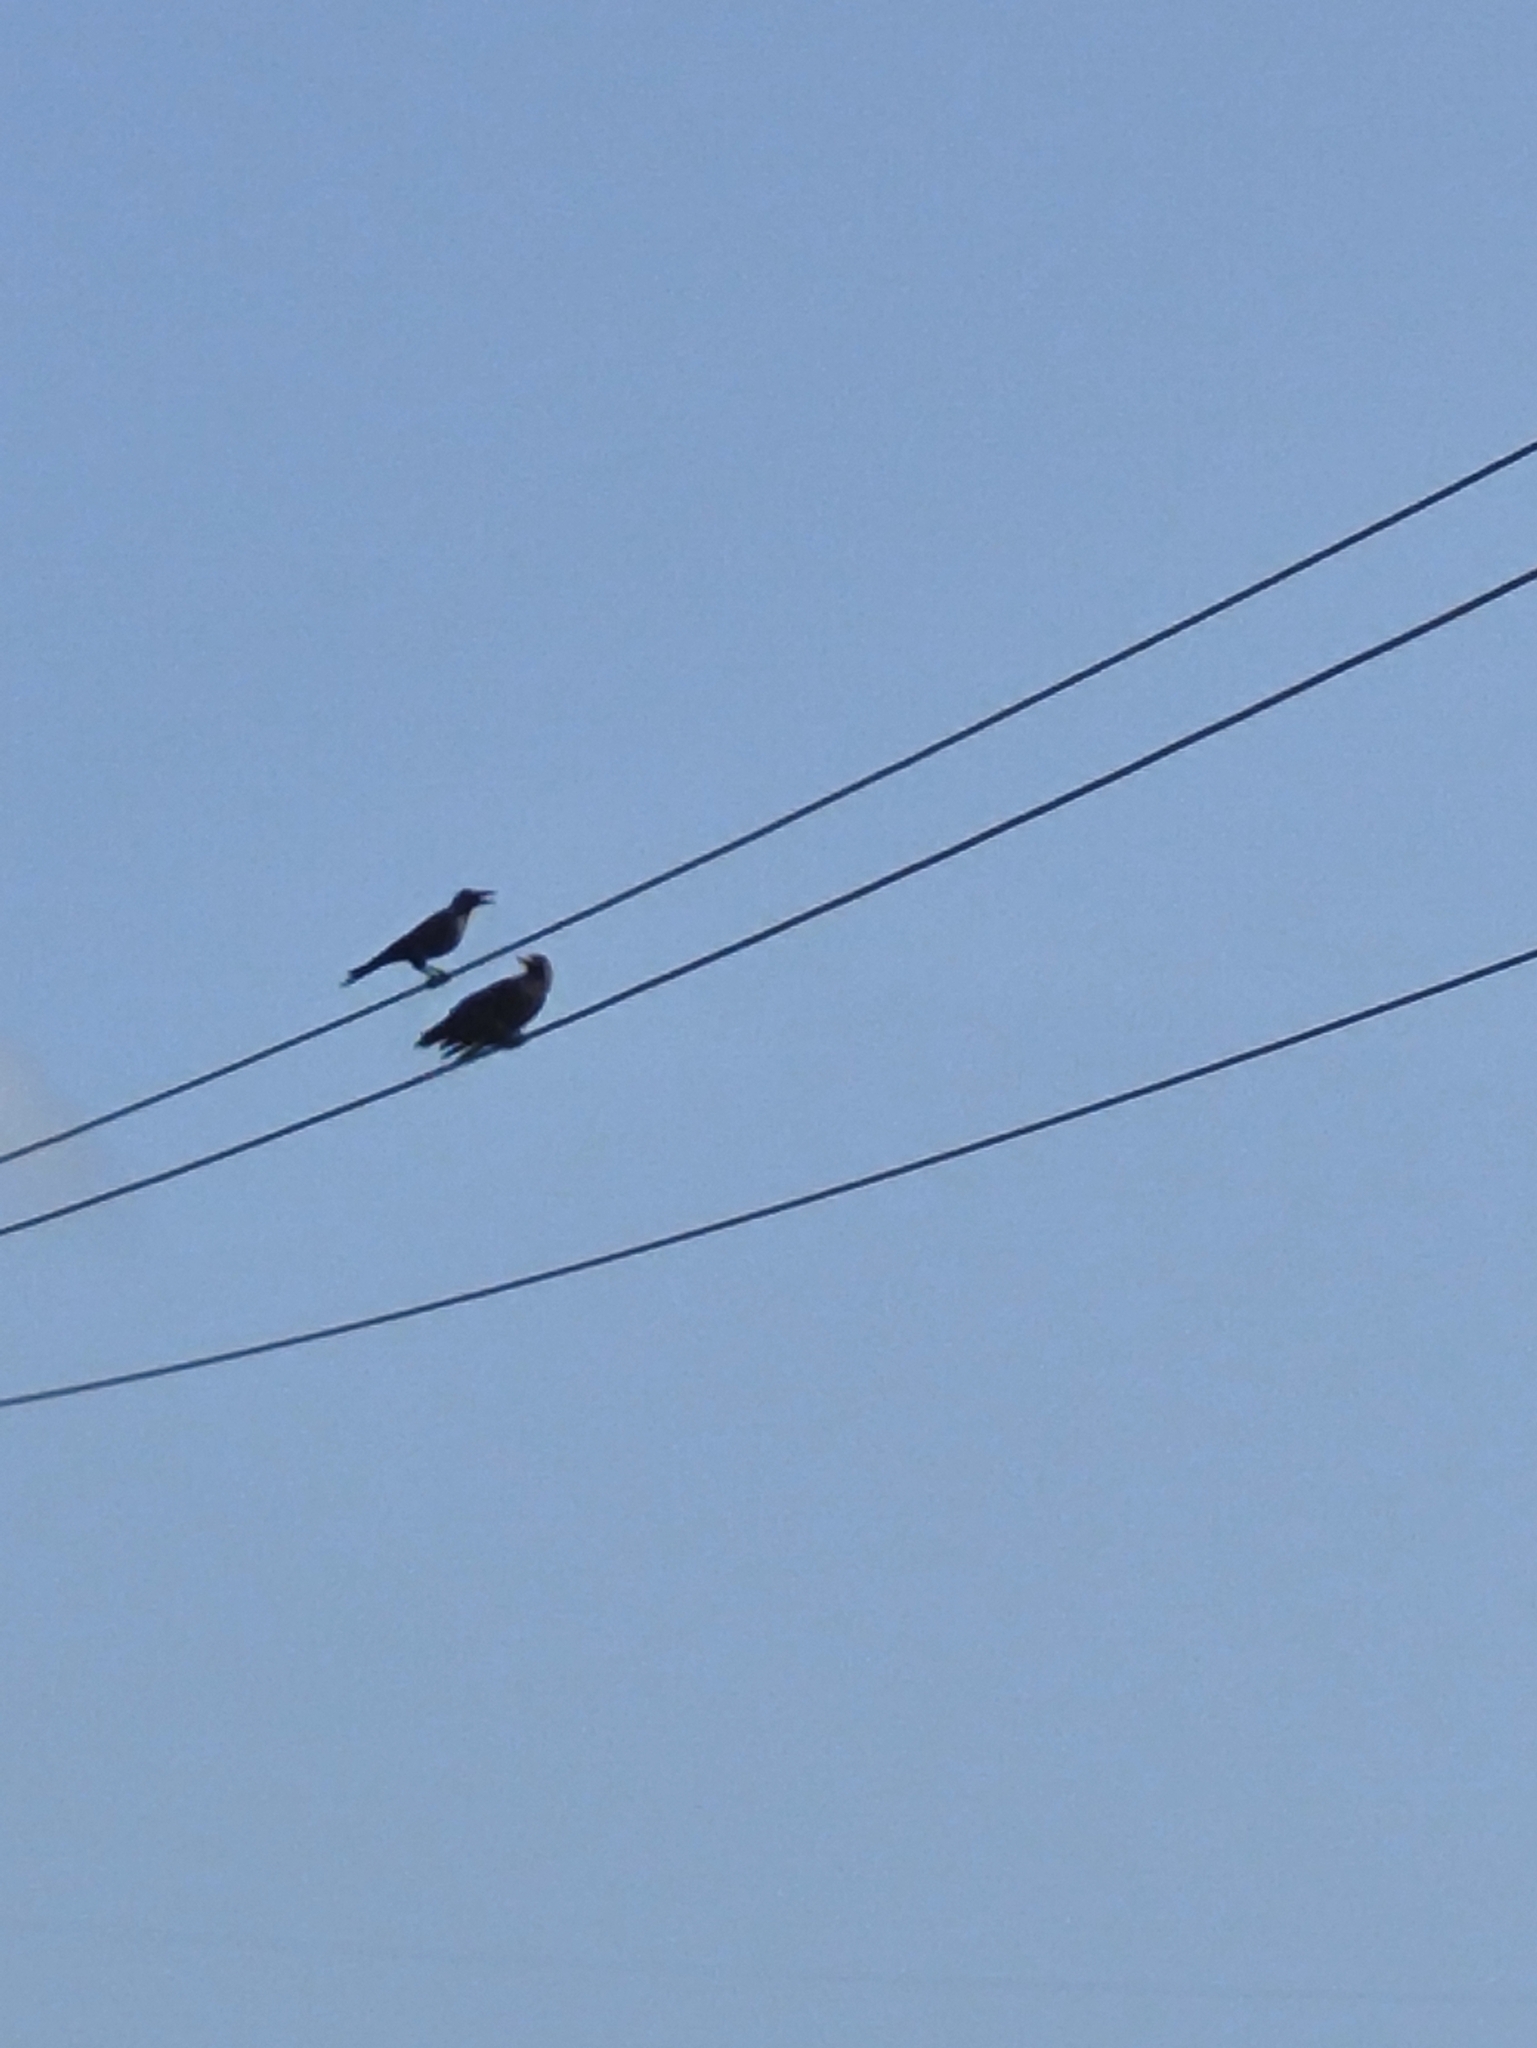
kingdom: Animalia
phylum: Chordata
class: Aves
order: Passeriformes
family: Corvidae
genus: Corvus
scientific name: Corvus splendens
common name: House crow
